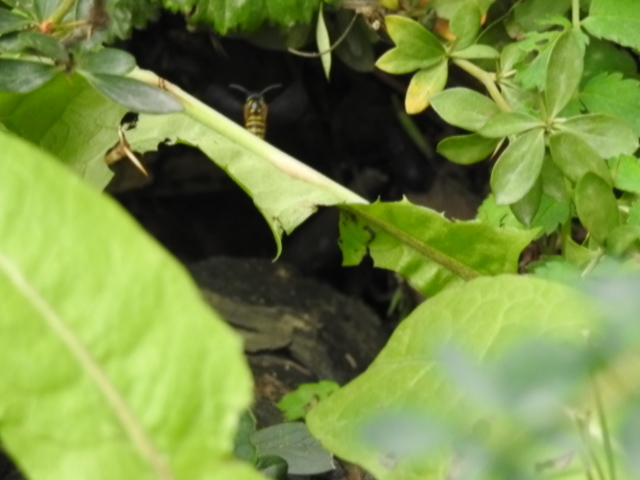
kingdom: Animalia
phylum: Arthropoda
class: Insecta
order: Hymenoptera
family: Vespidae
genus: Vespula
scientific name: Vespula vulgaris
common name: Common wasp
